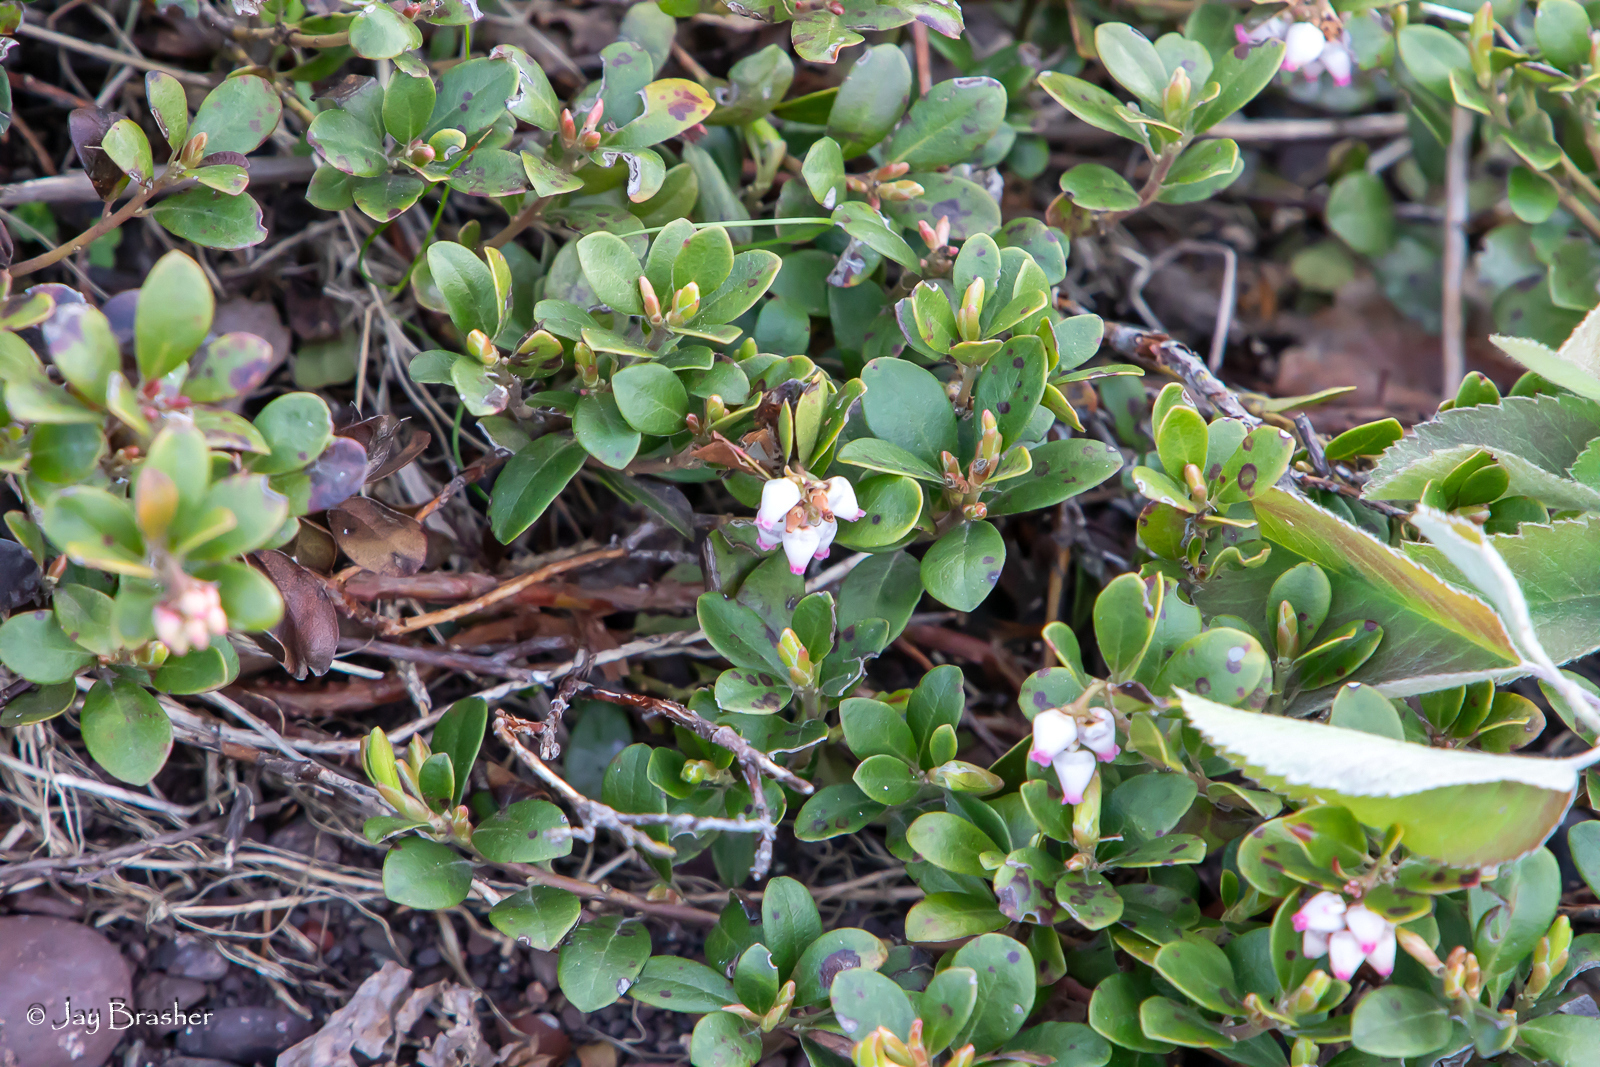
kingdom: Plantae
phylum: Tracheophyta
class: Magnoliopsida
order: Ericales
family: Ericaceae
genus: Arctostaphylos
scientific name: Arctostaphylos uva-ursi
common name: Bearberry
